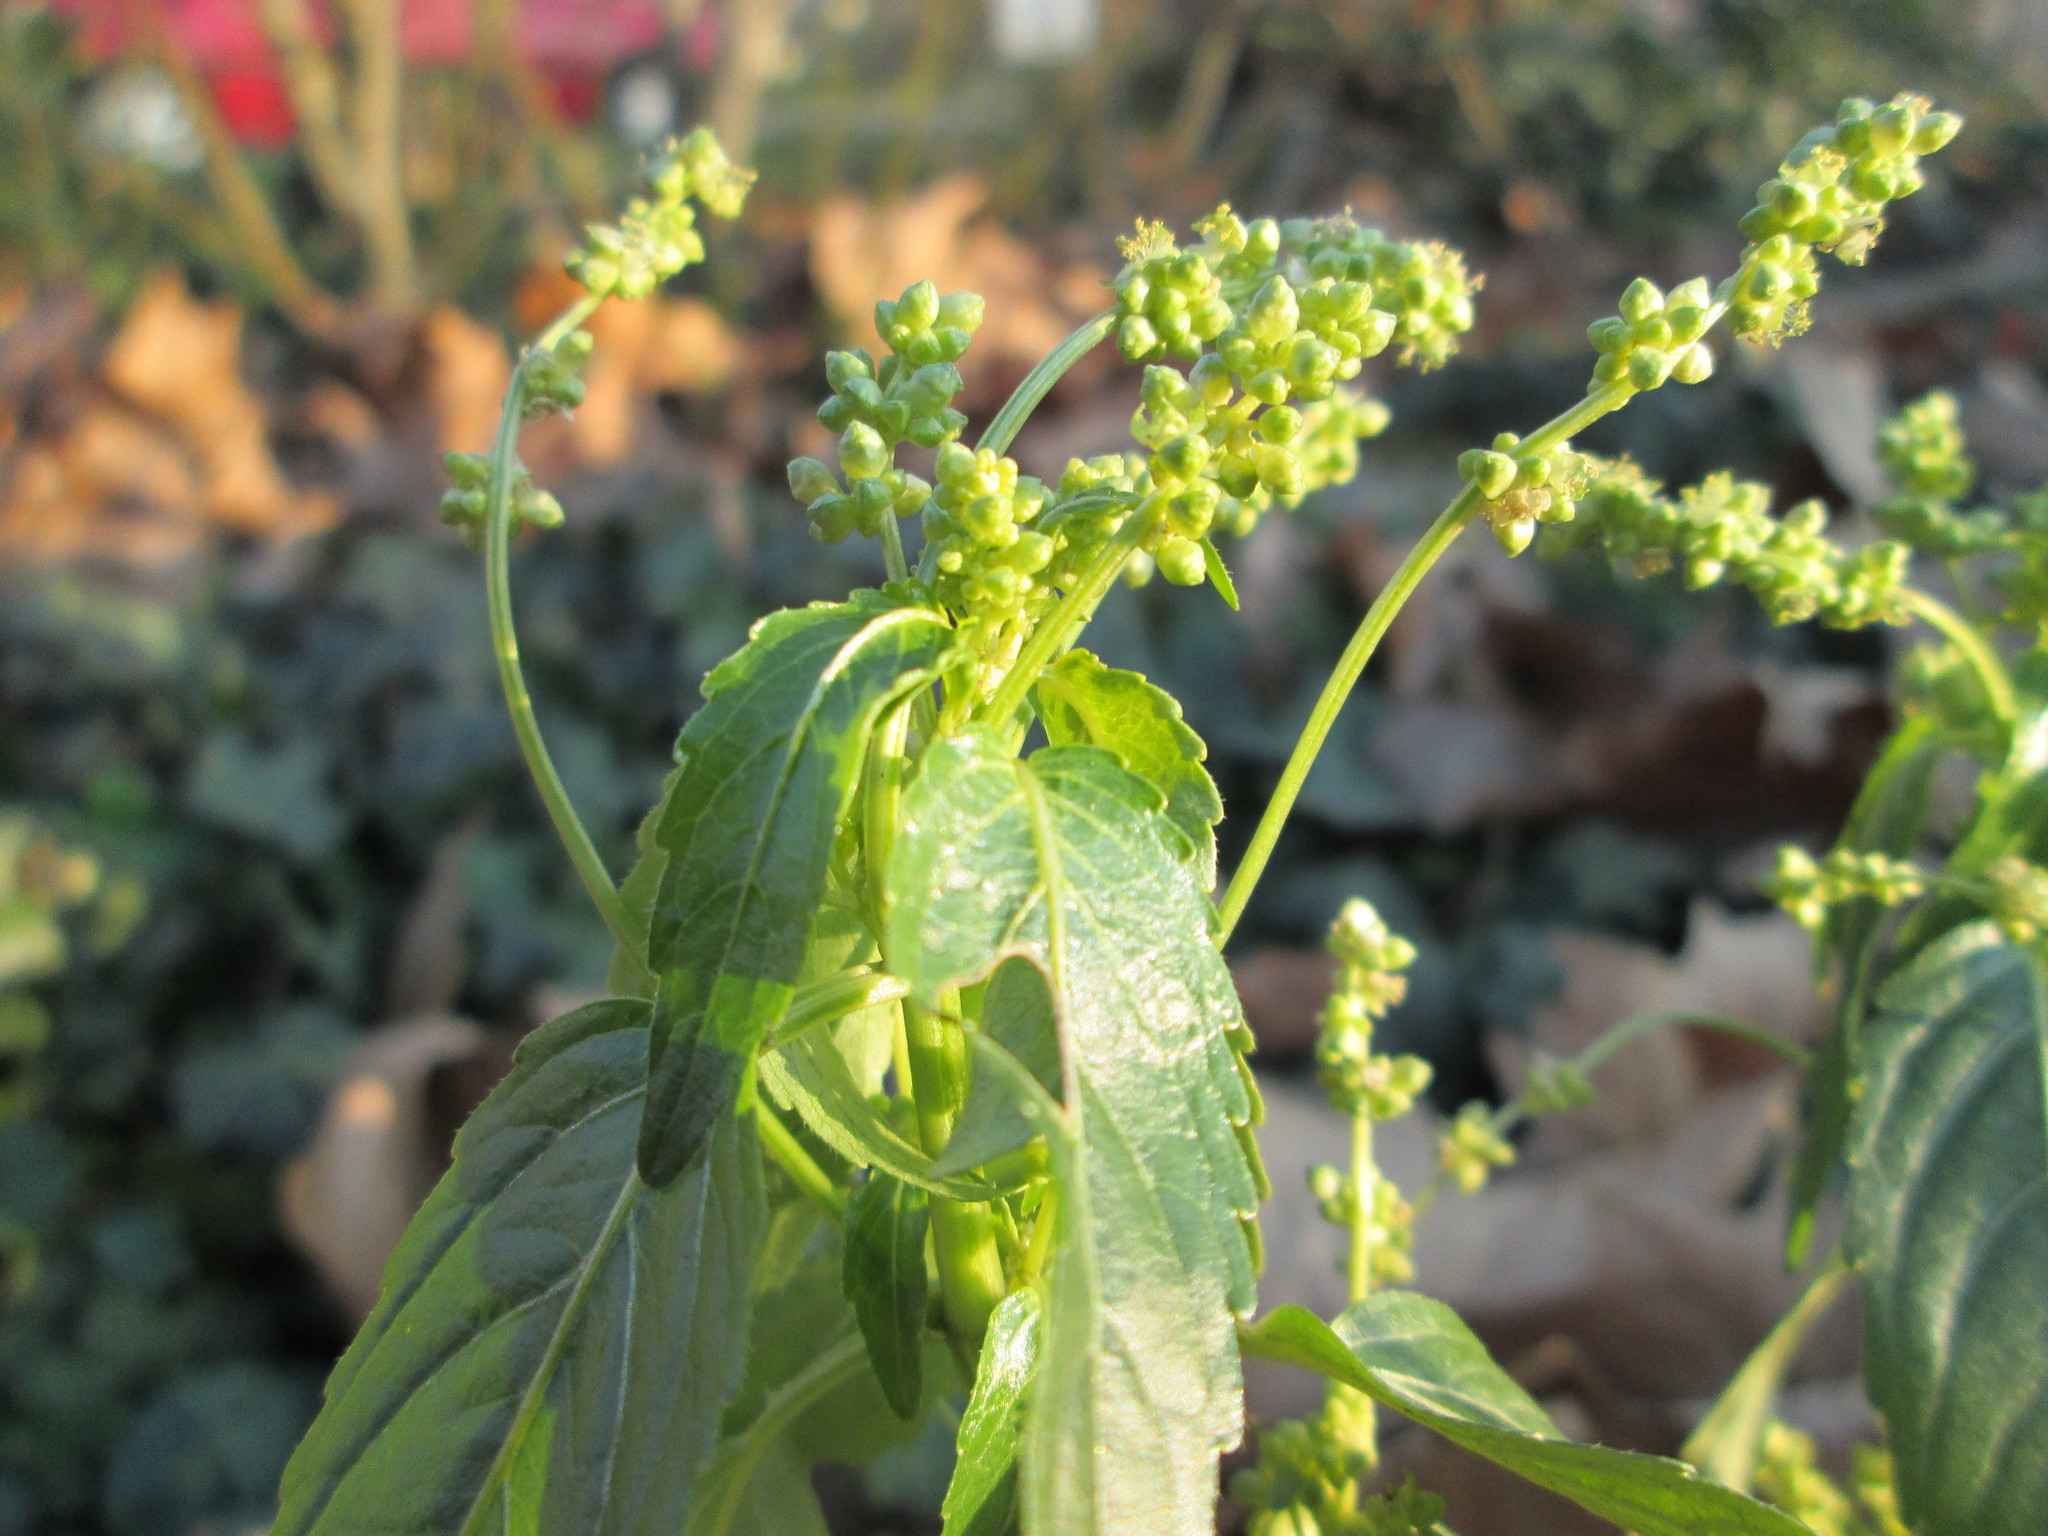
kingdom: Plantae
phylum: Tracheophyta
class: Magnoliopsida
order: Malpighiales
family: Euphorbiaceae
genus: Mercurialis
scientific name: Mercurialis annua
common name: Annual mercury
